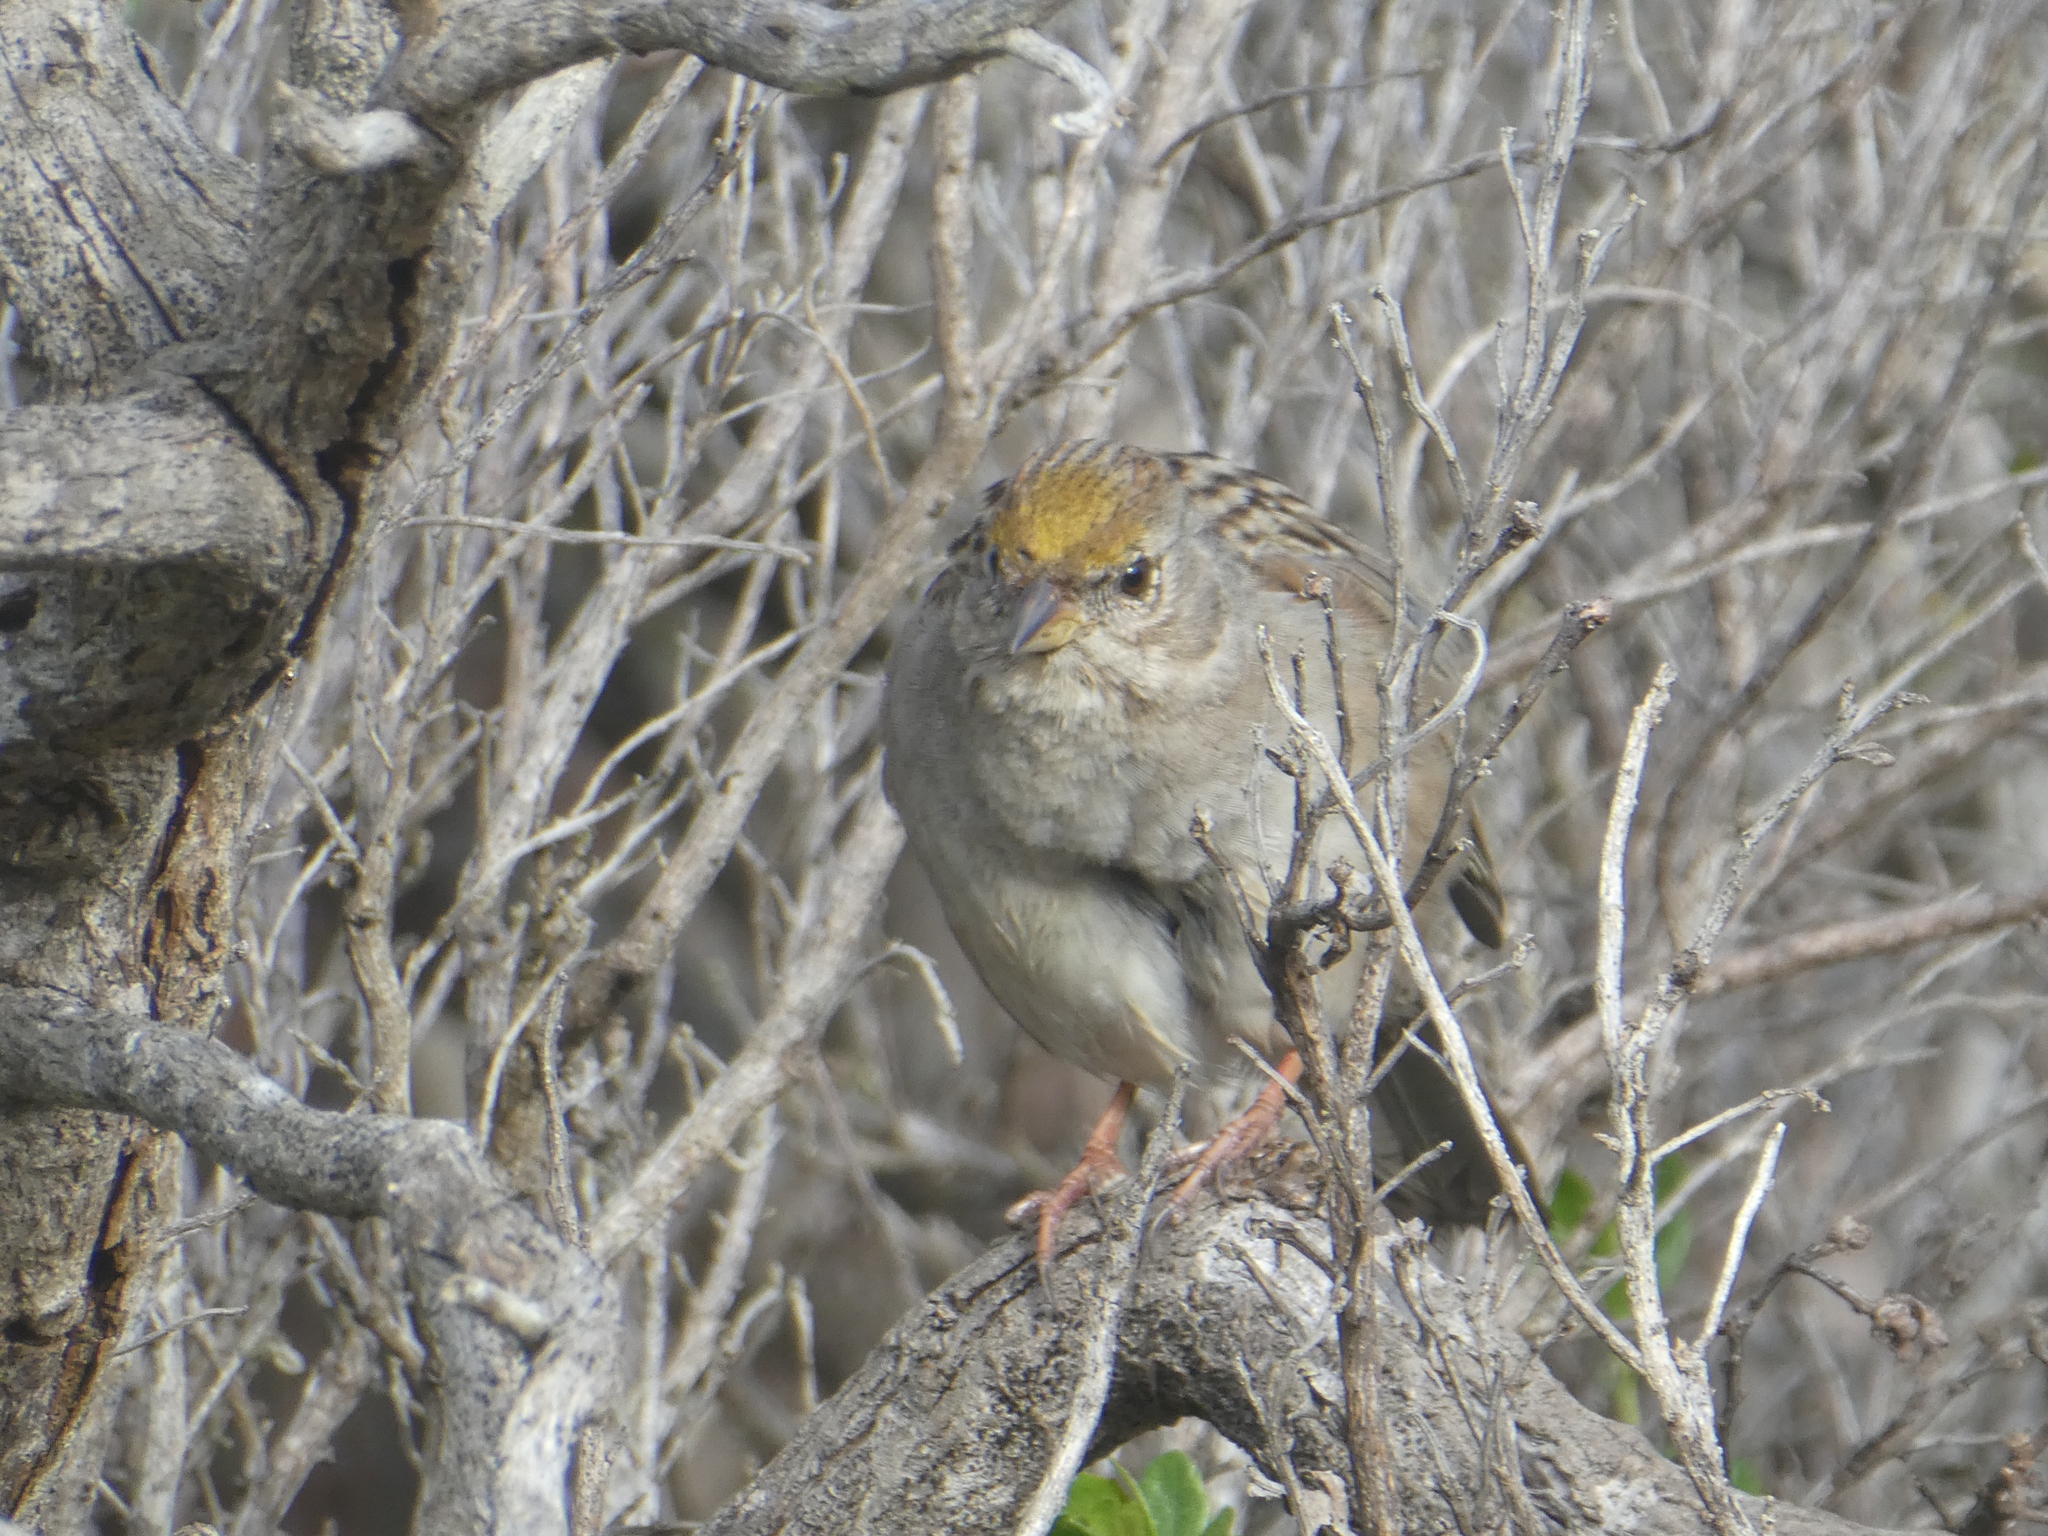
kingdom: Animalia
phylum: Chordata
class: Aves
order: Passeriformes
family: Passerellidae
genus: Zonotrichia
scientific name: Zonotrichia atricapilla
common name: Golden-crowned sparrow
